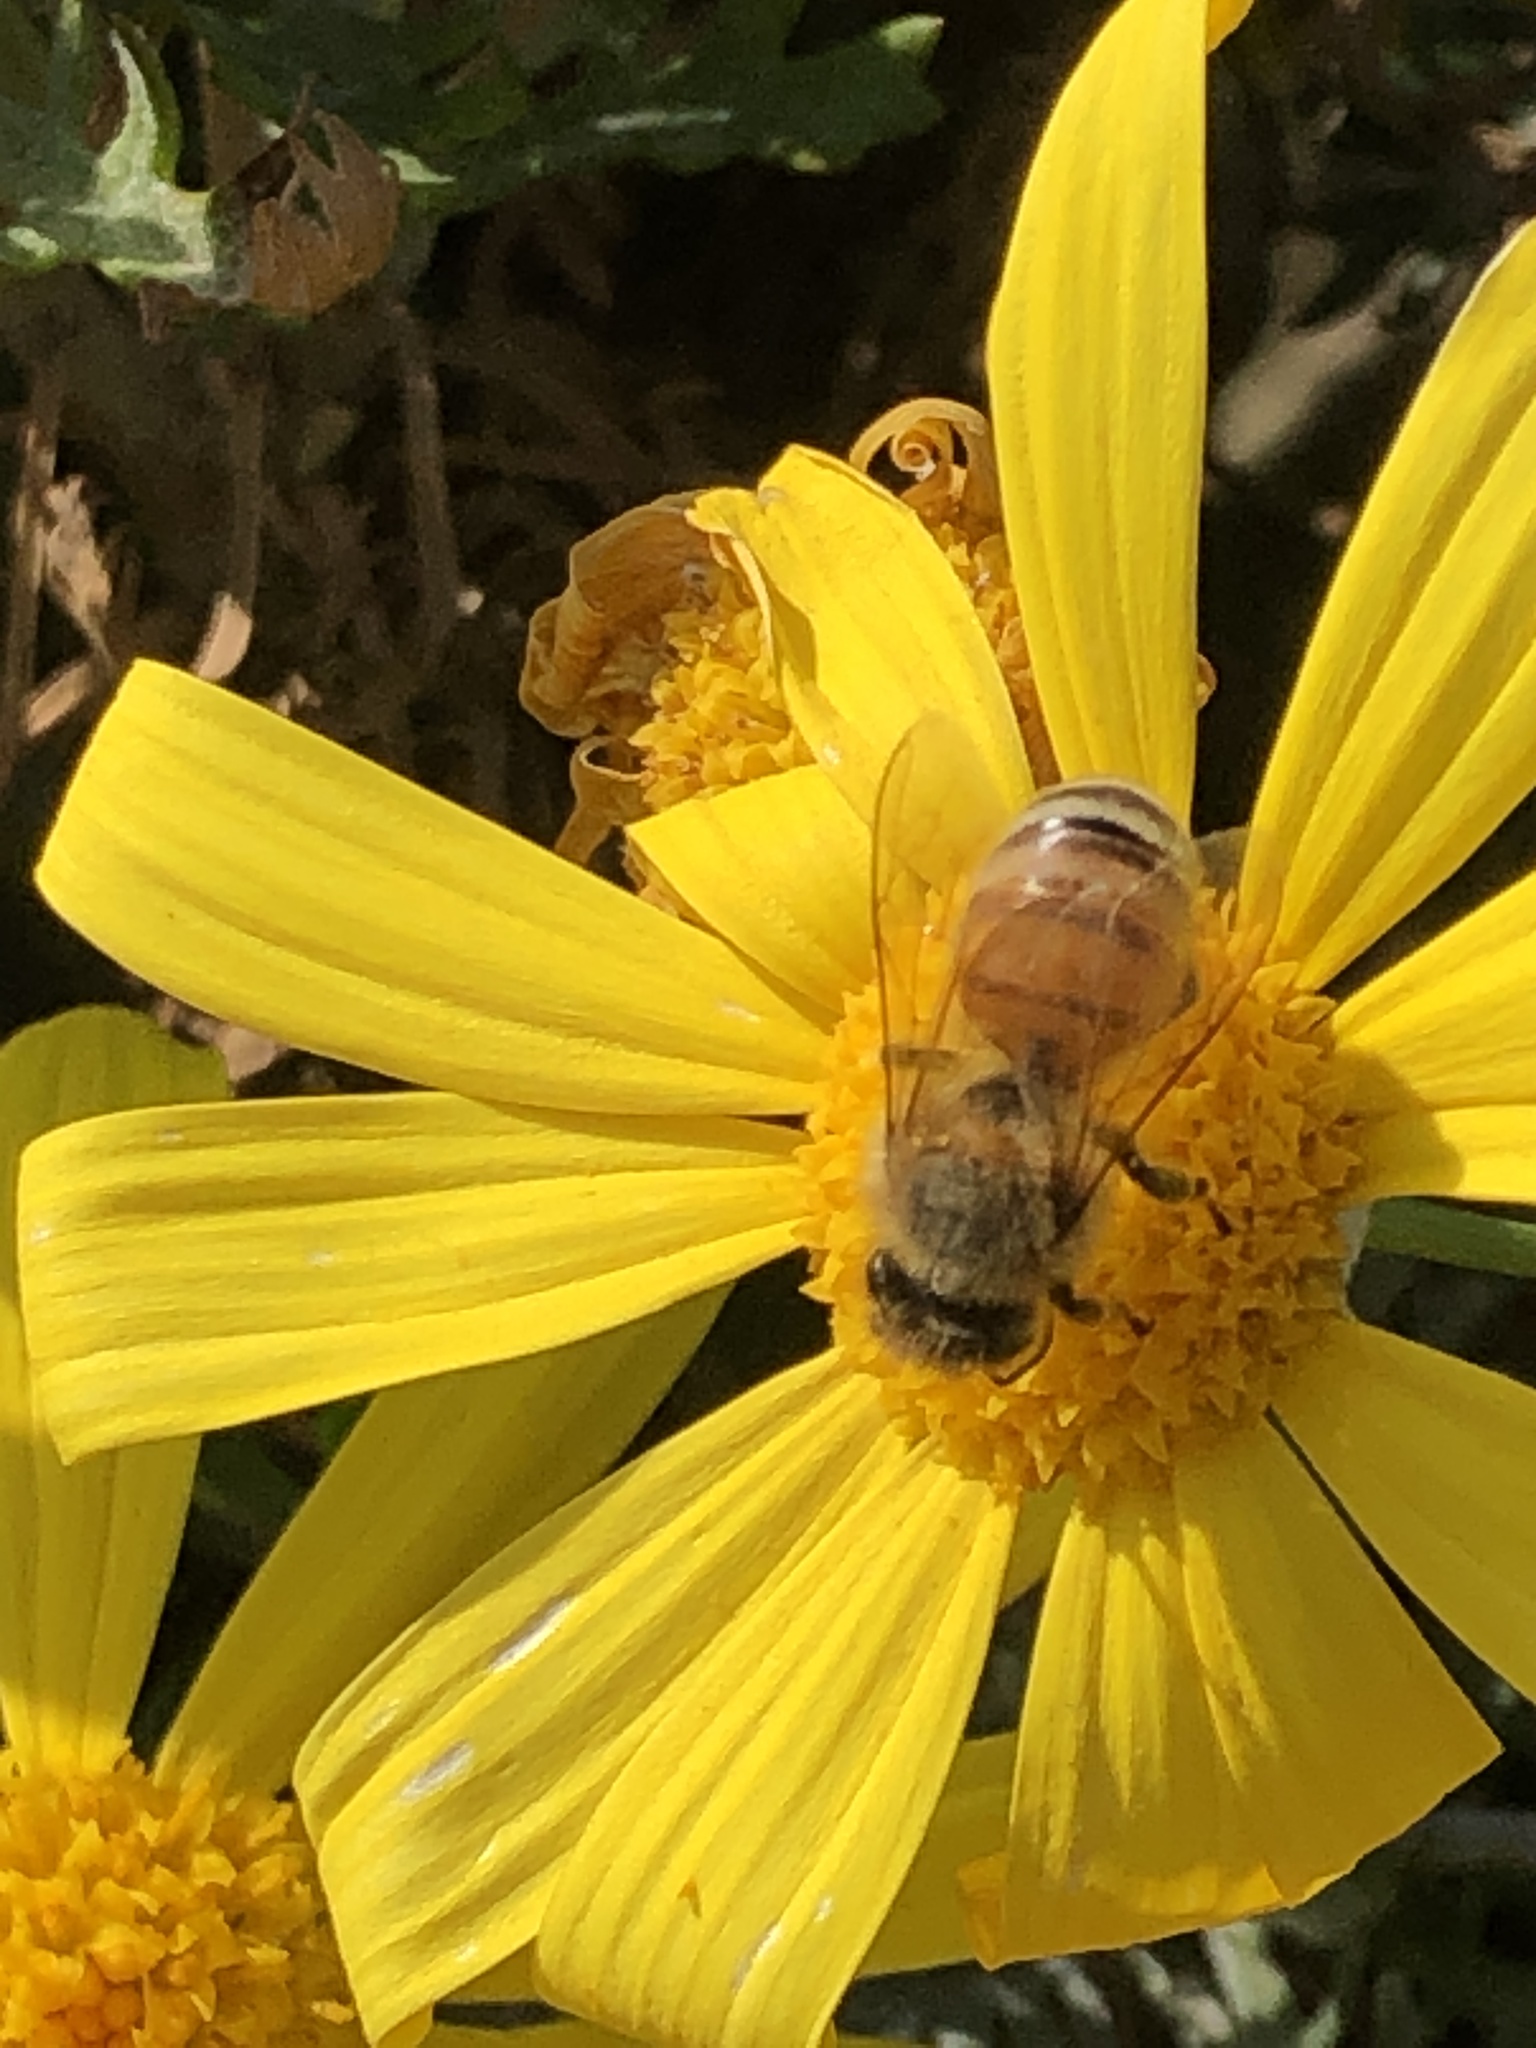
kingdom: Animalia
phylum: Arthropoda
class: Insecta
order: Hymenoptera
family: Apidae
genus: Apis
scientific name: Apis mellifera
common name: Honey bee
